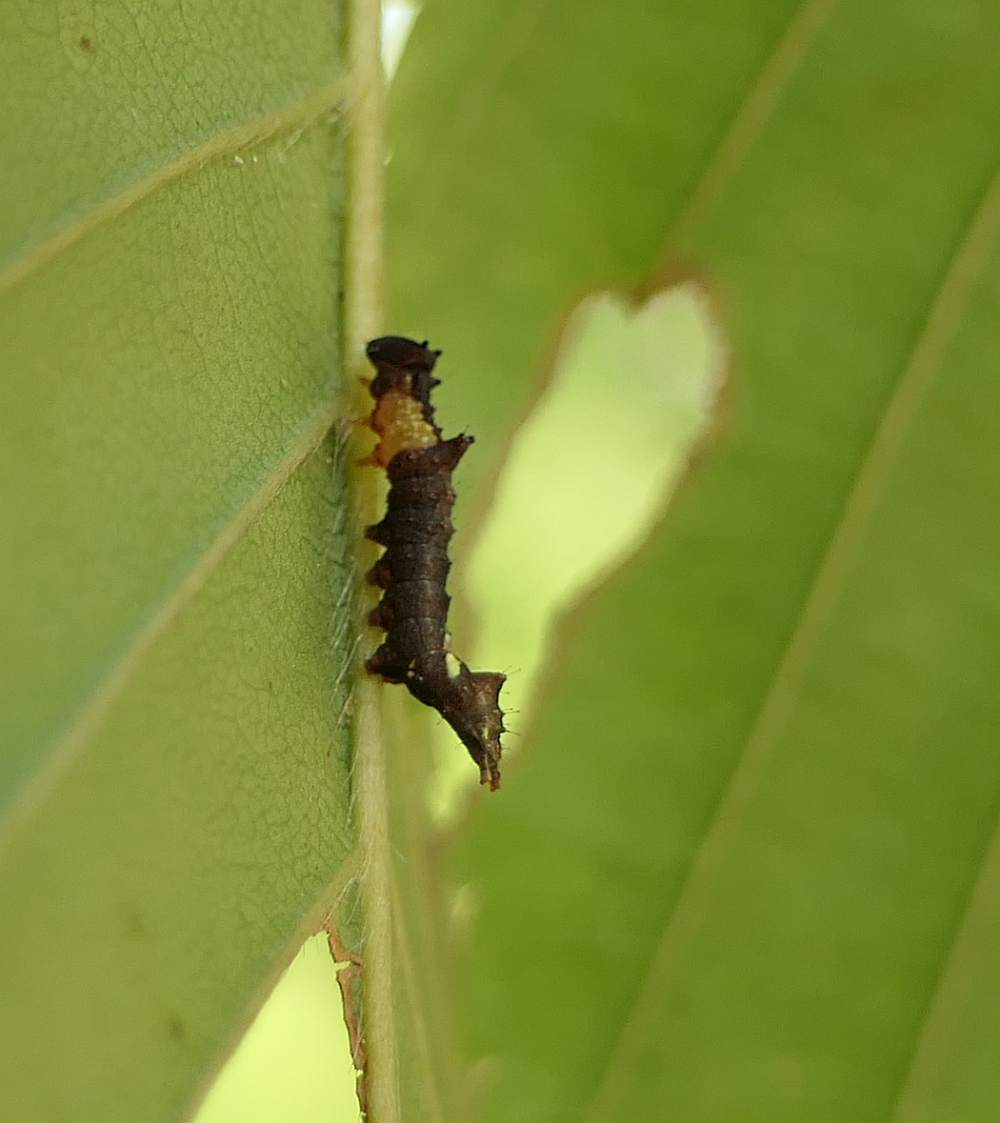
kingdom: Animalia
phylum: Arthropoda
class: Insecta
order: Lepidoptera
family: Notodontidae
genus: Schizura
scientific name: Schizura
